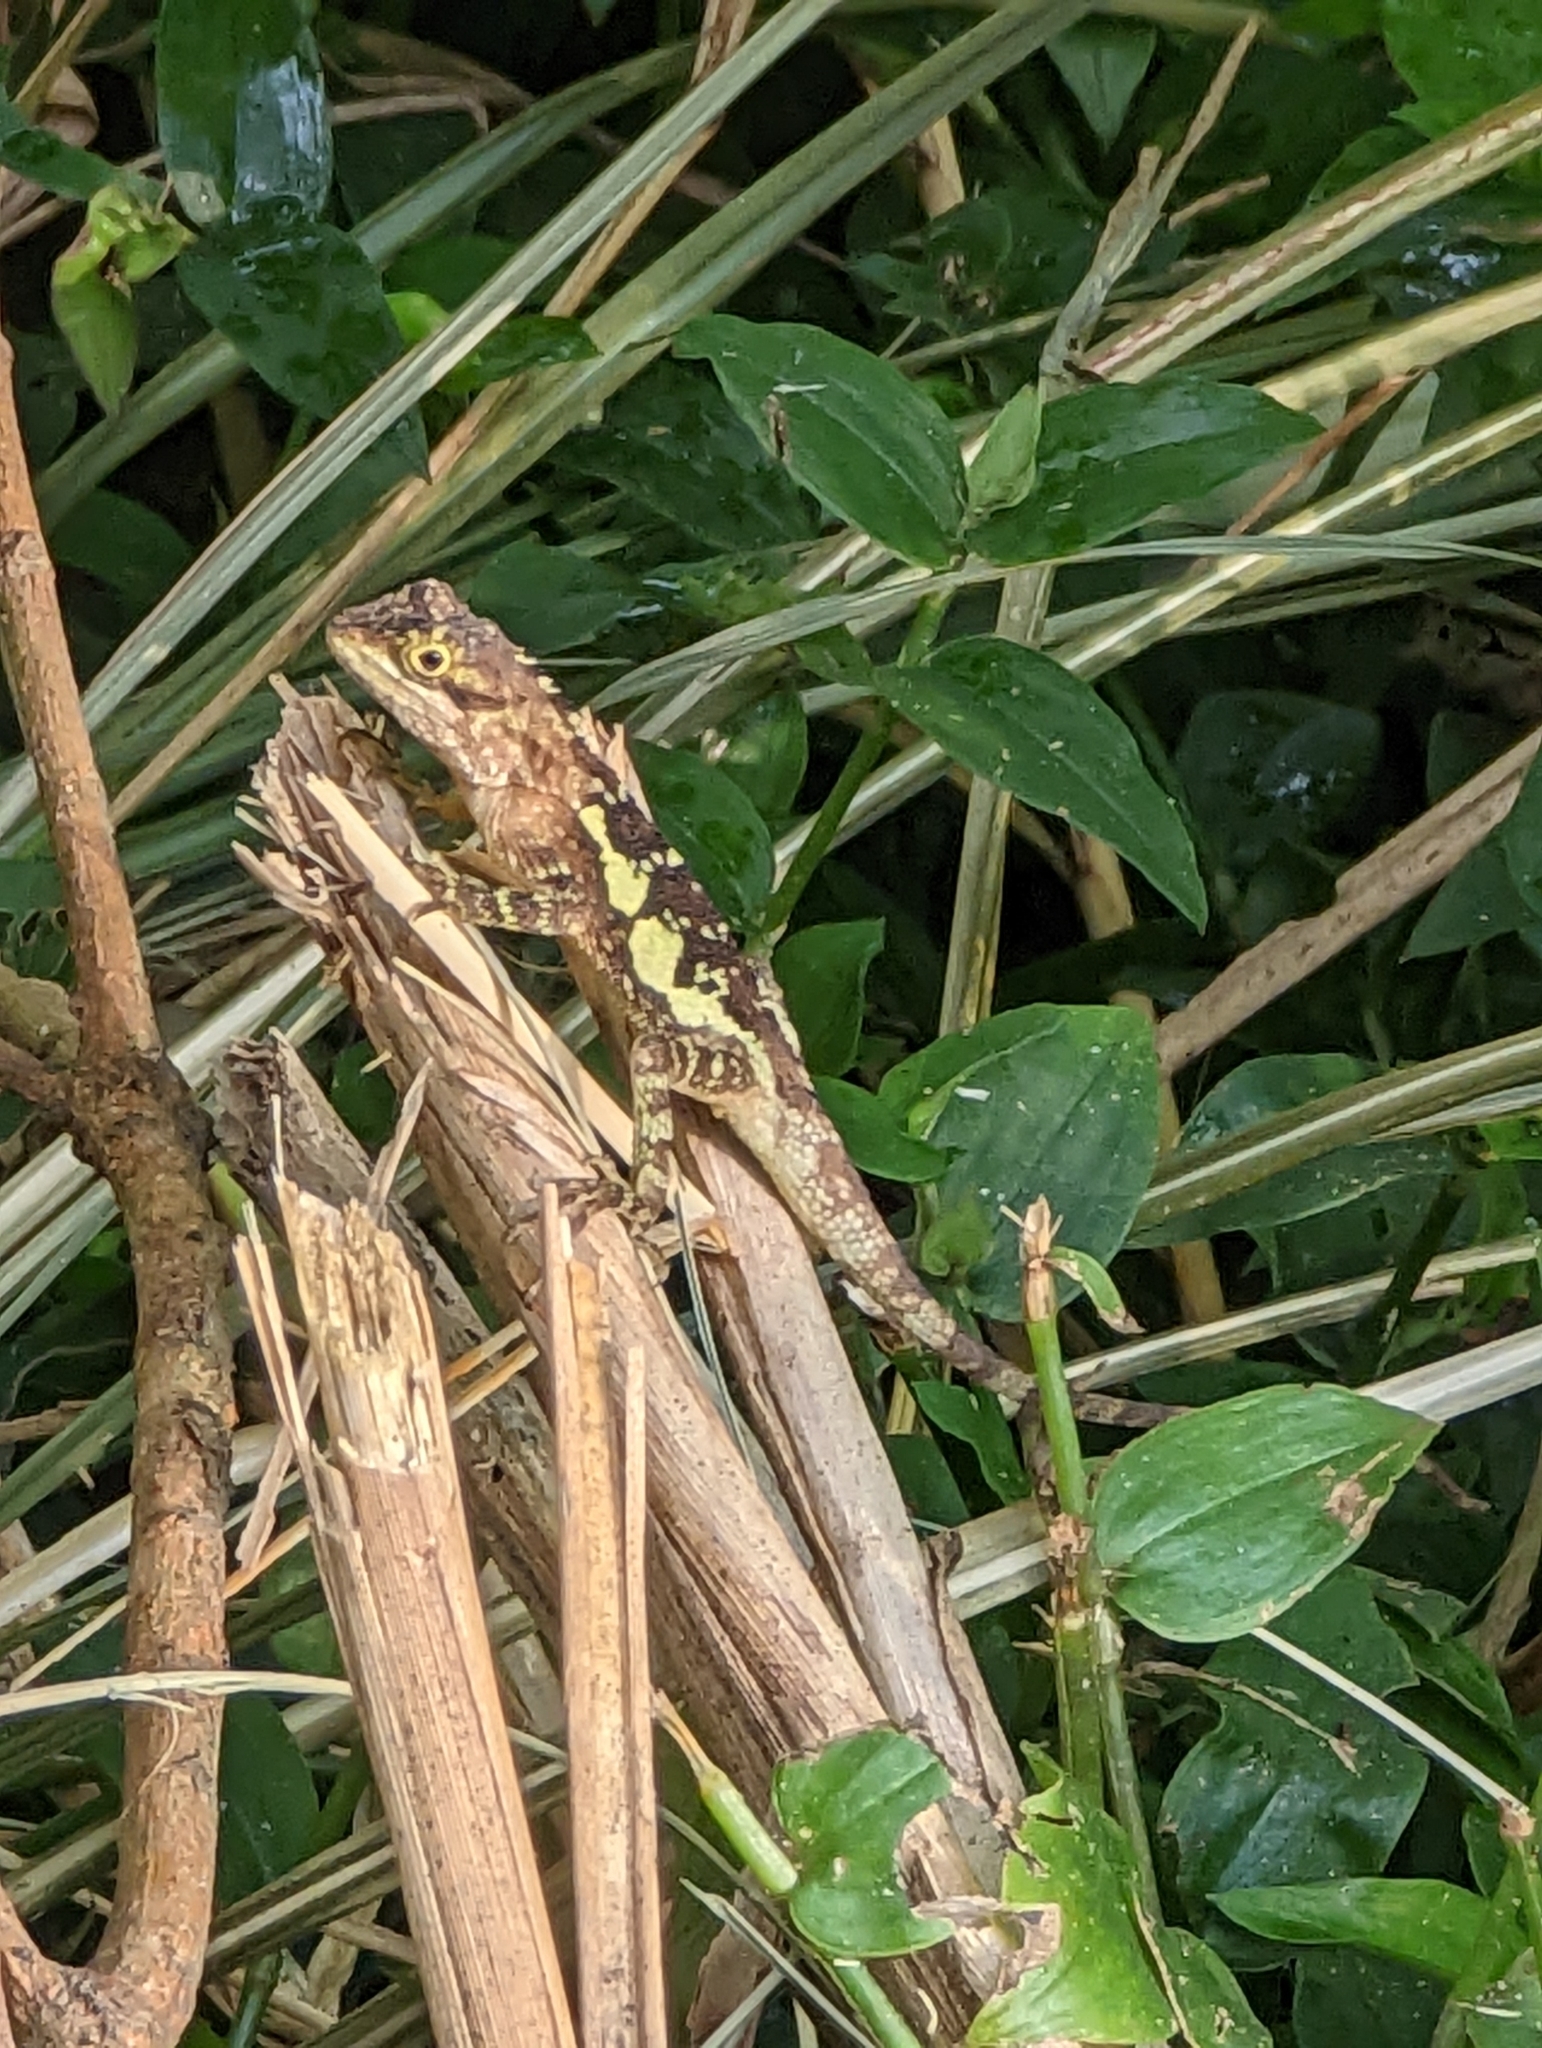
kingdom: Fungi
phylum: Basidiomycota
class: Agaricomycetes
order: Boletales
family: Diplocystidiaceae
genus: Diploderma
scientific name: Diploderma polygonatum
